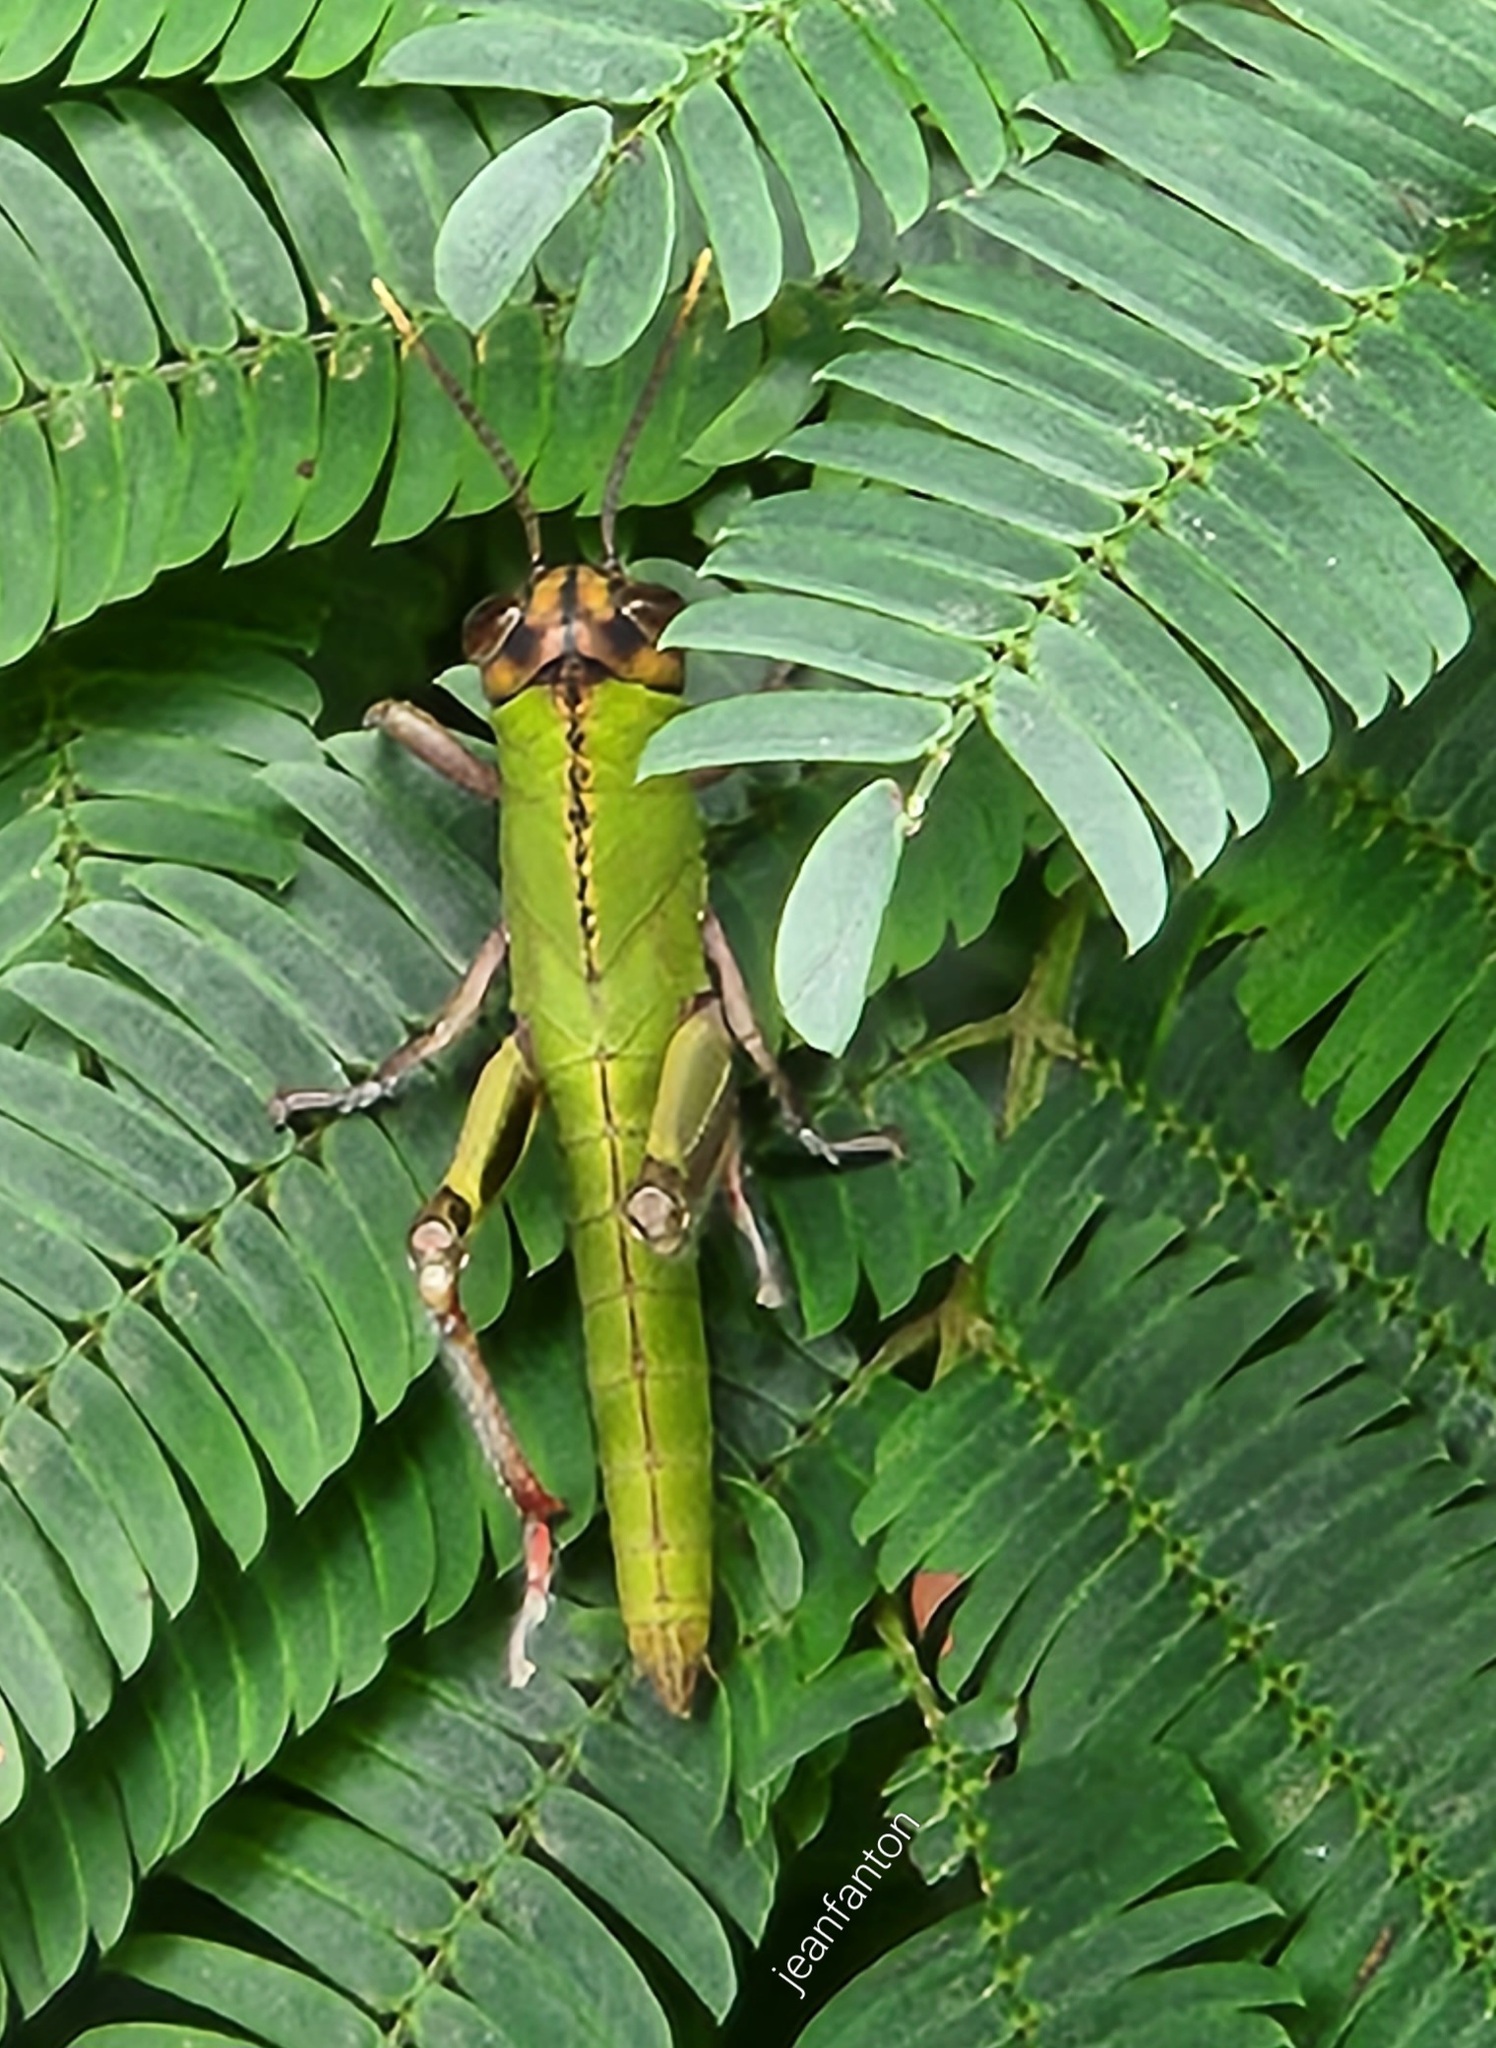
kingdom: Animalia
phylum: Arthropoda
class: Insecta
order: Orthoptera
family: Romaleidae
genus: Prionacris
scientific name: Prionacris erosa
